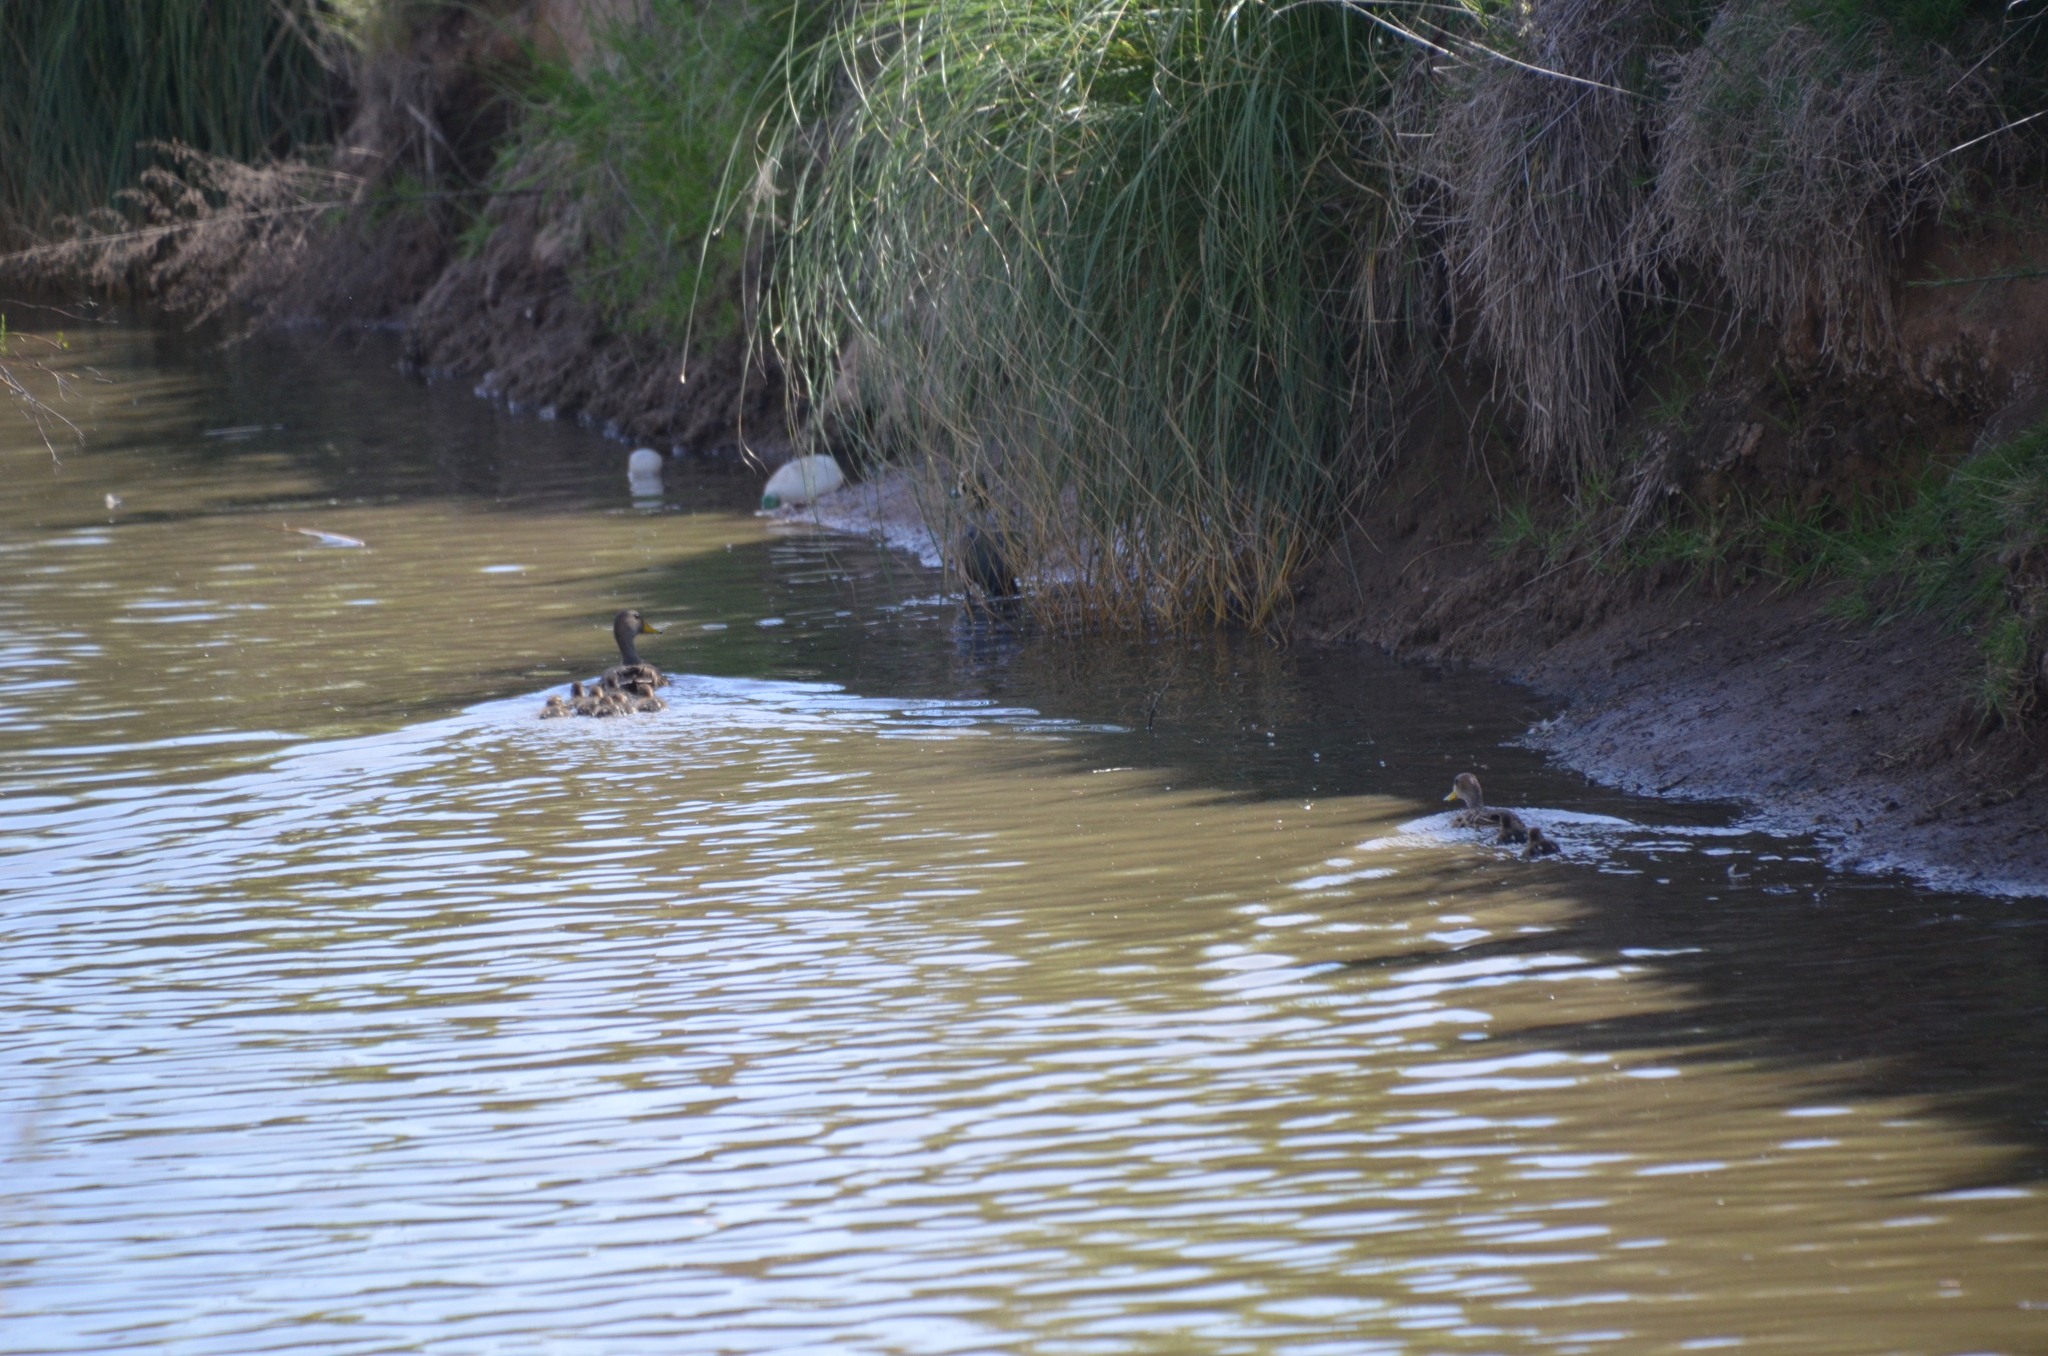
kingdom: Animalia
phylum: Chordata
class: Aves
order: Anseriformes
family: Anatidae
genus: Anas
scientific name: Anas georgica
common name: Yellow-billed pintail
